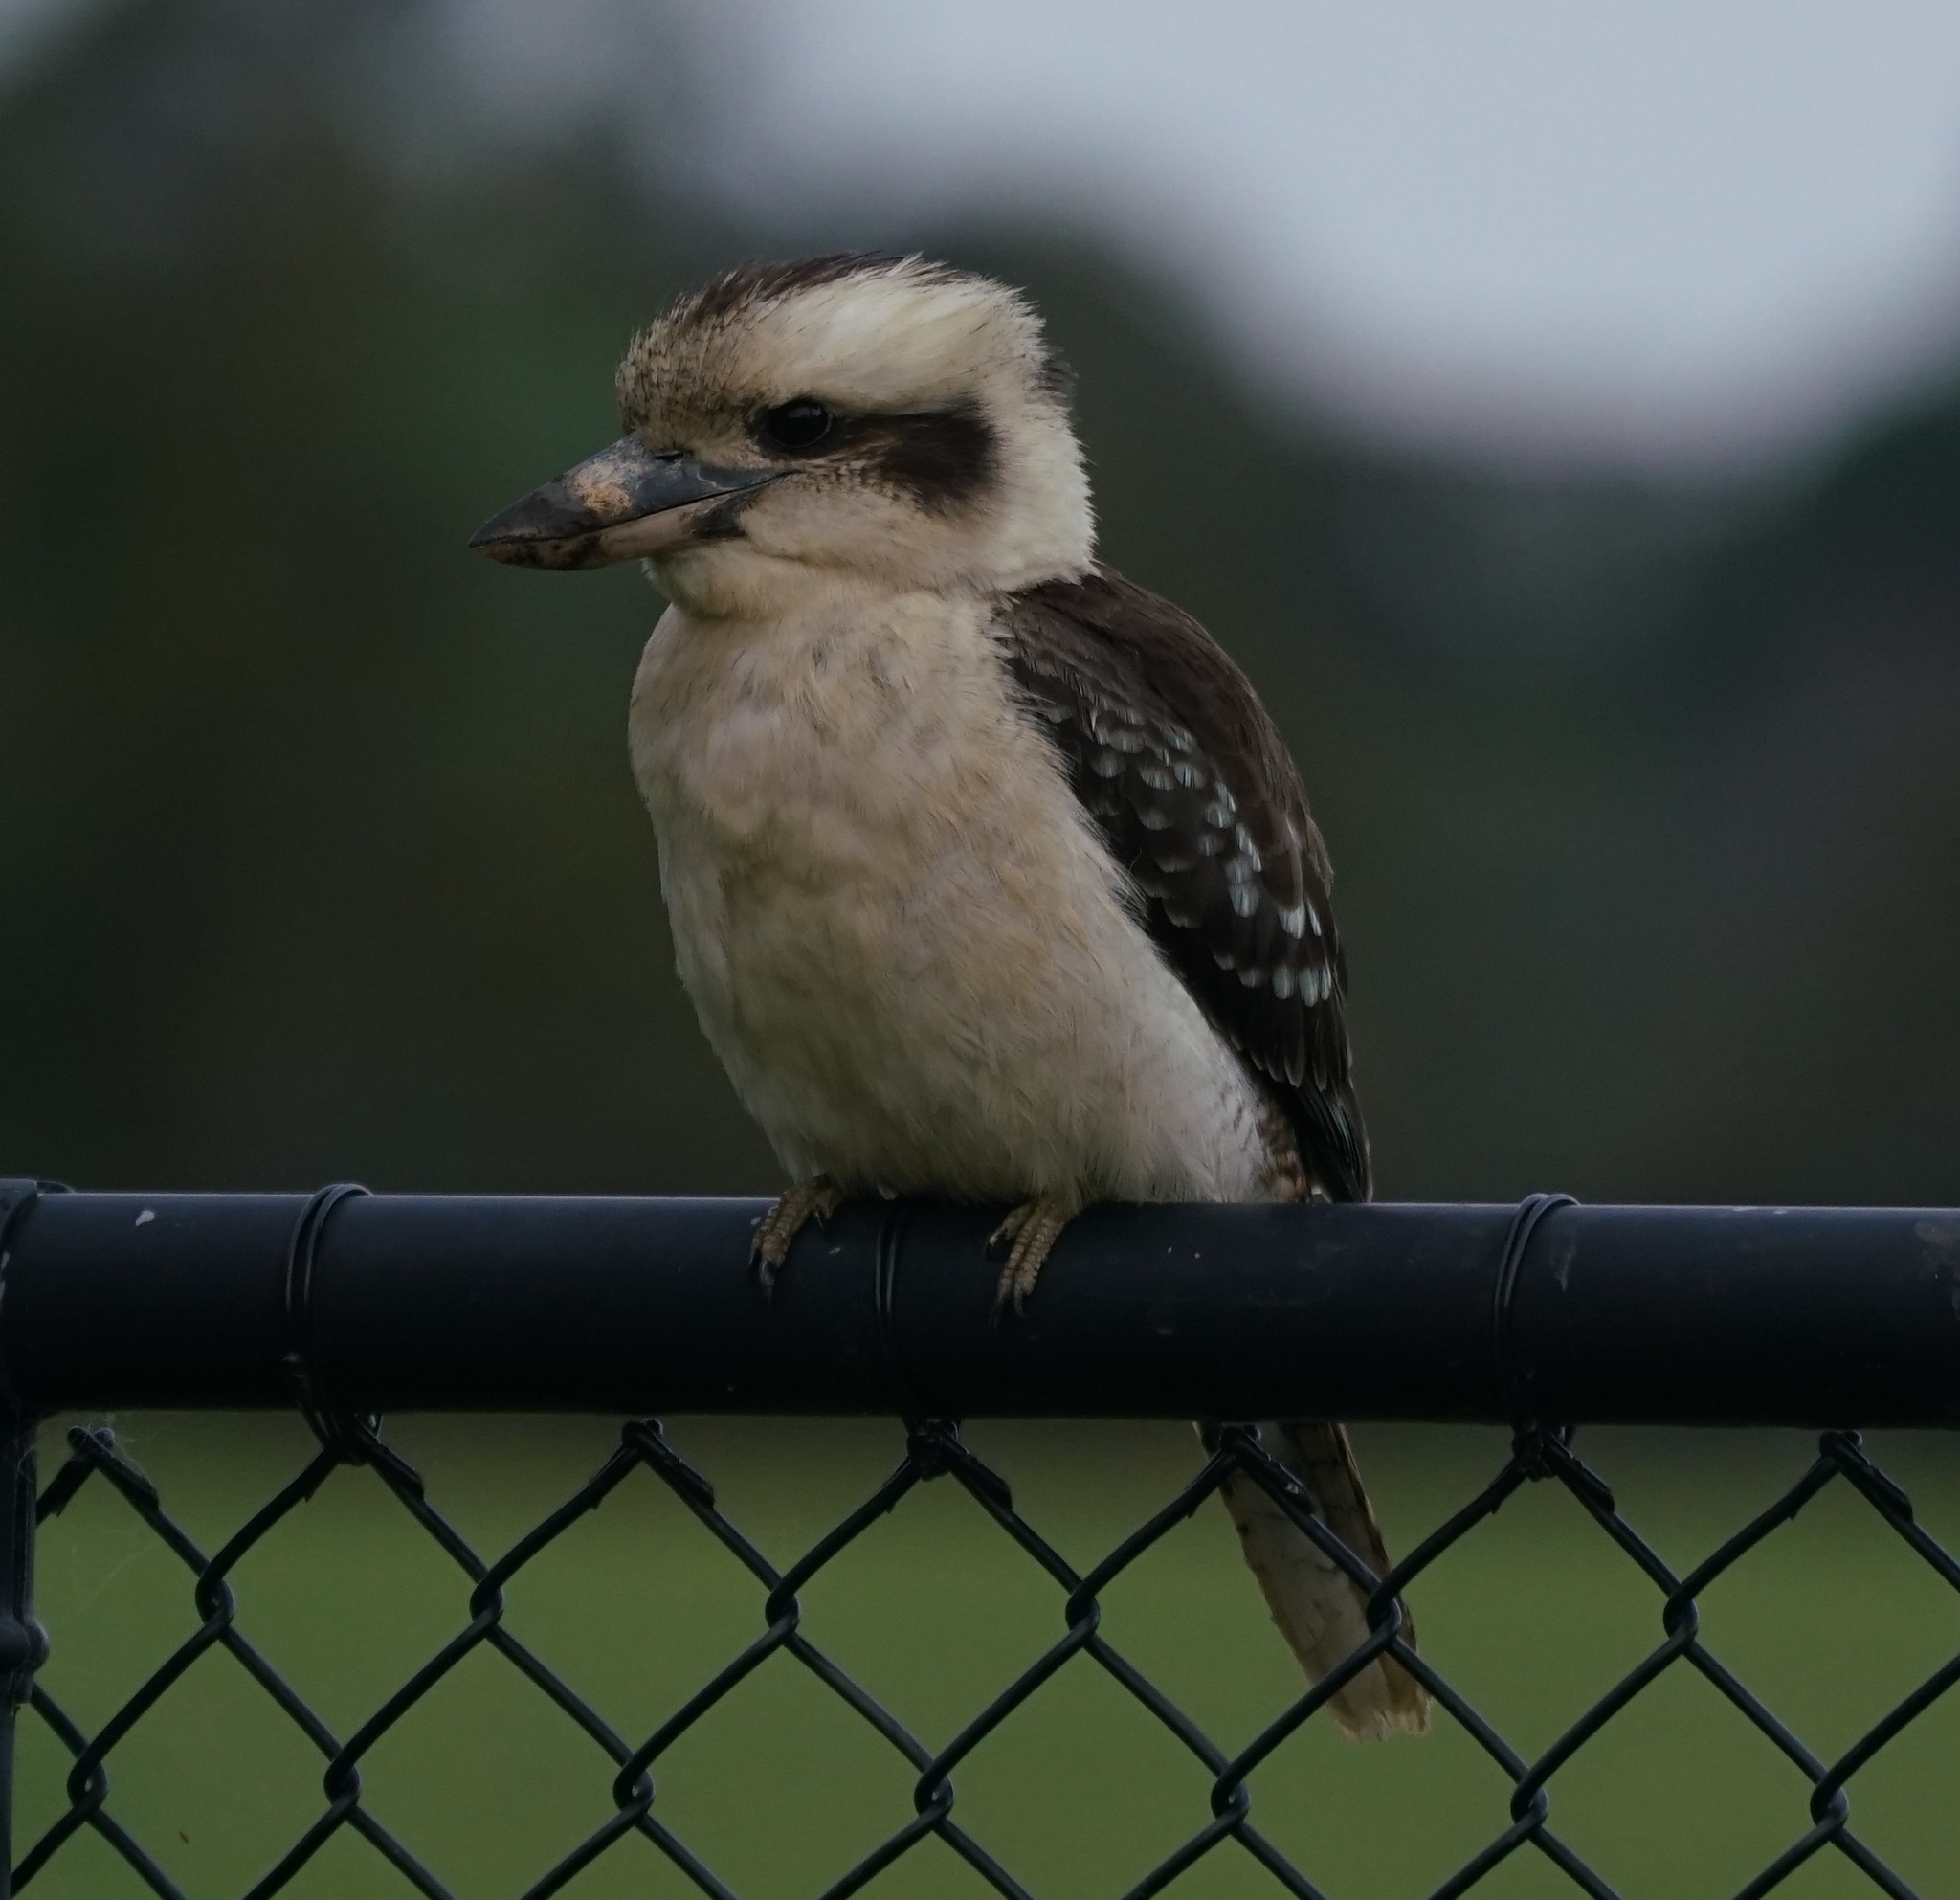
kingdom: Animalia
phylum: Chordata
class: Aves
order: Coraciiformes
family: Alcedinidae
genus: Dacelo
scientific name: Dacelo novaeguineae
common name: Laughing kookaburra
